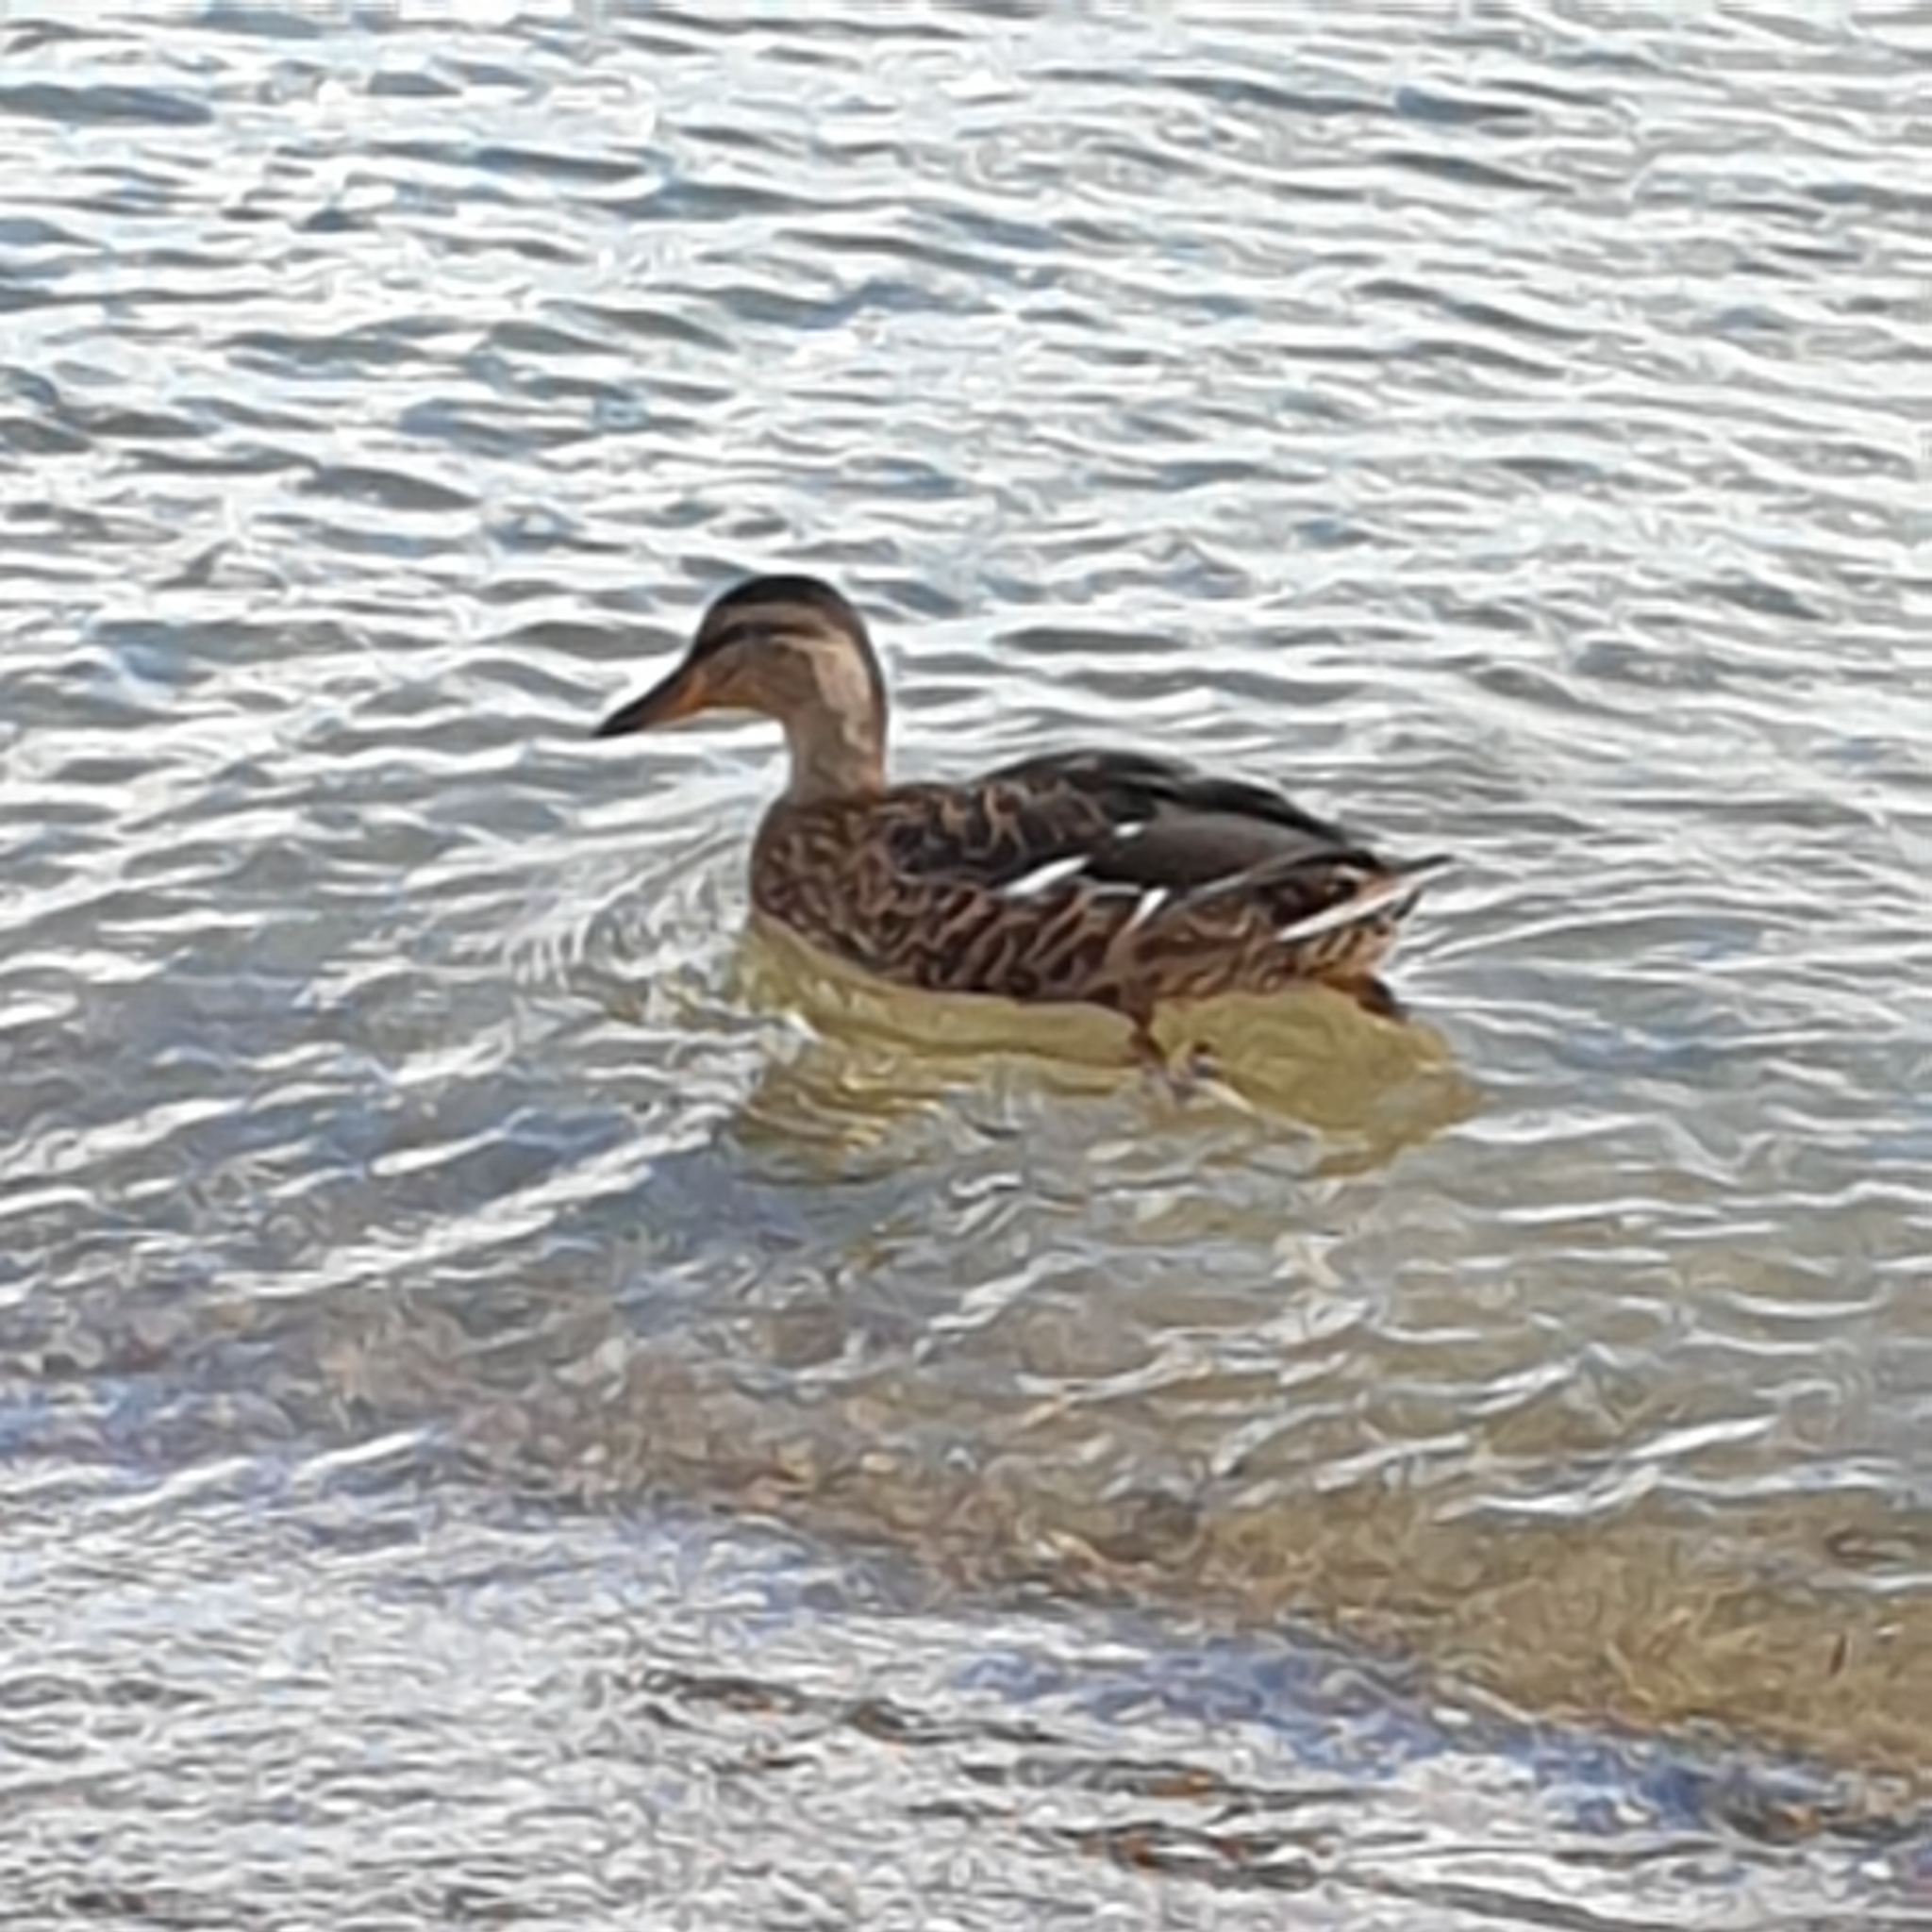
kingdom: Animalia
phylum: Chordata
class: Aves
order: Anseriformes
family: Anatidae
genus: Anas
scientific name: Anas platyrhynchos
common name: Mallard
